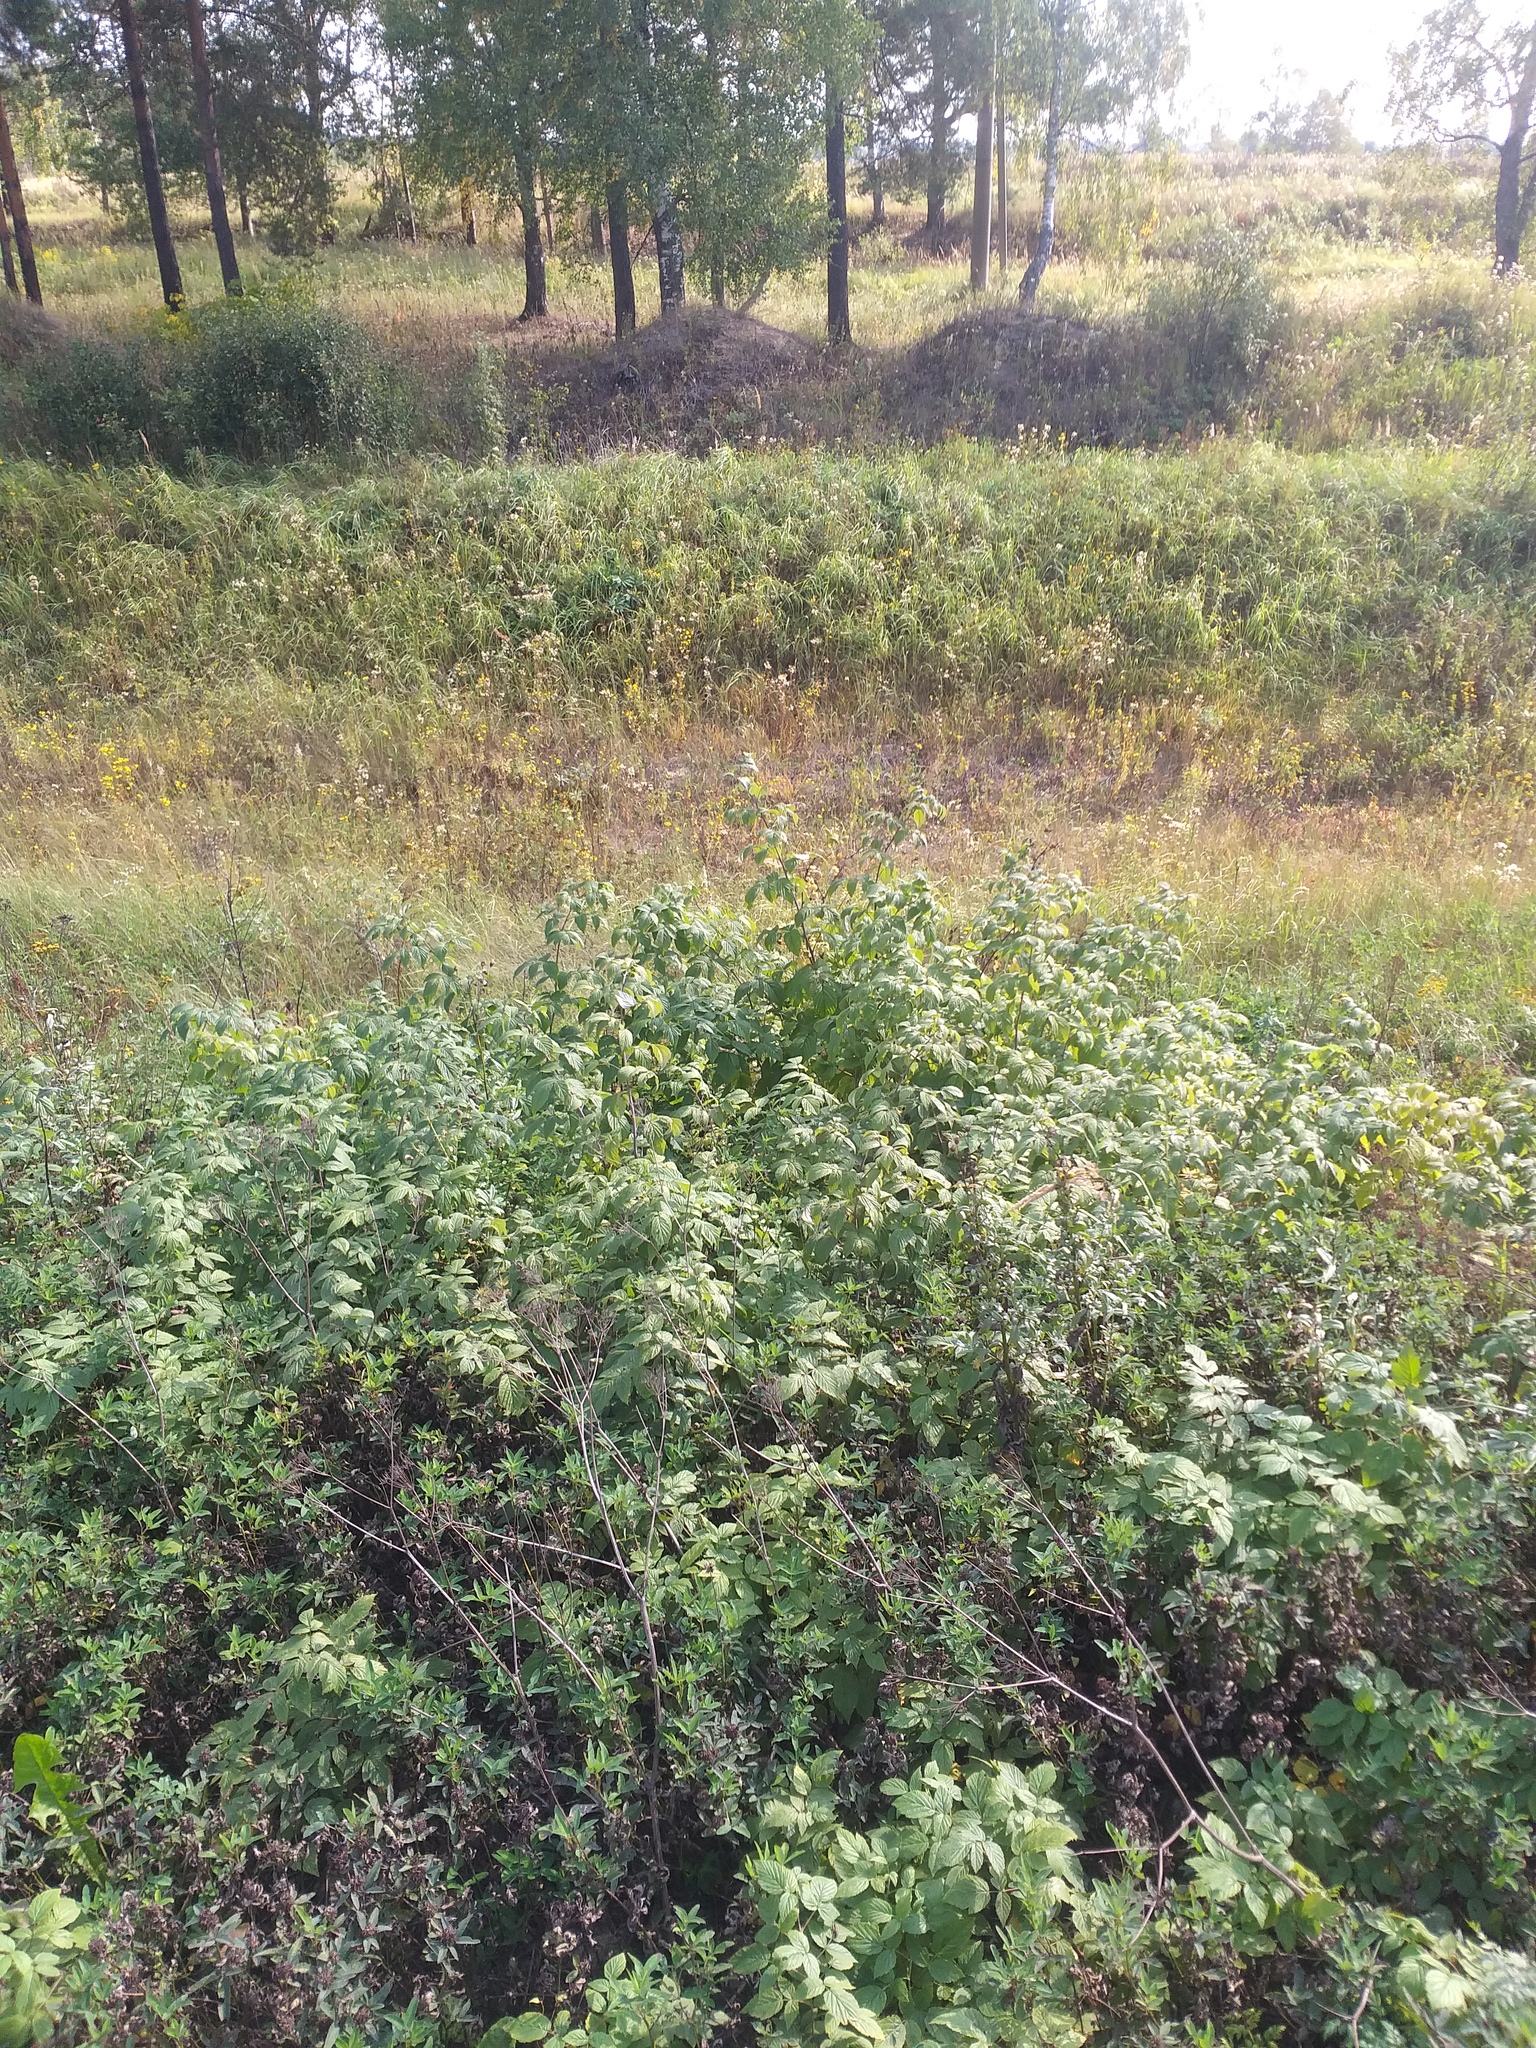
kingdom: Plantae
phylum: Tracheophyta
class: Magnoliopsida
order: Rosales
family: Rosaceae
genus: Rubus
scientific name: Rubus idaeus
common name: Raspberry
